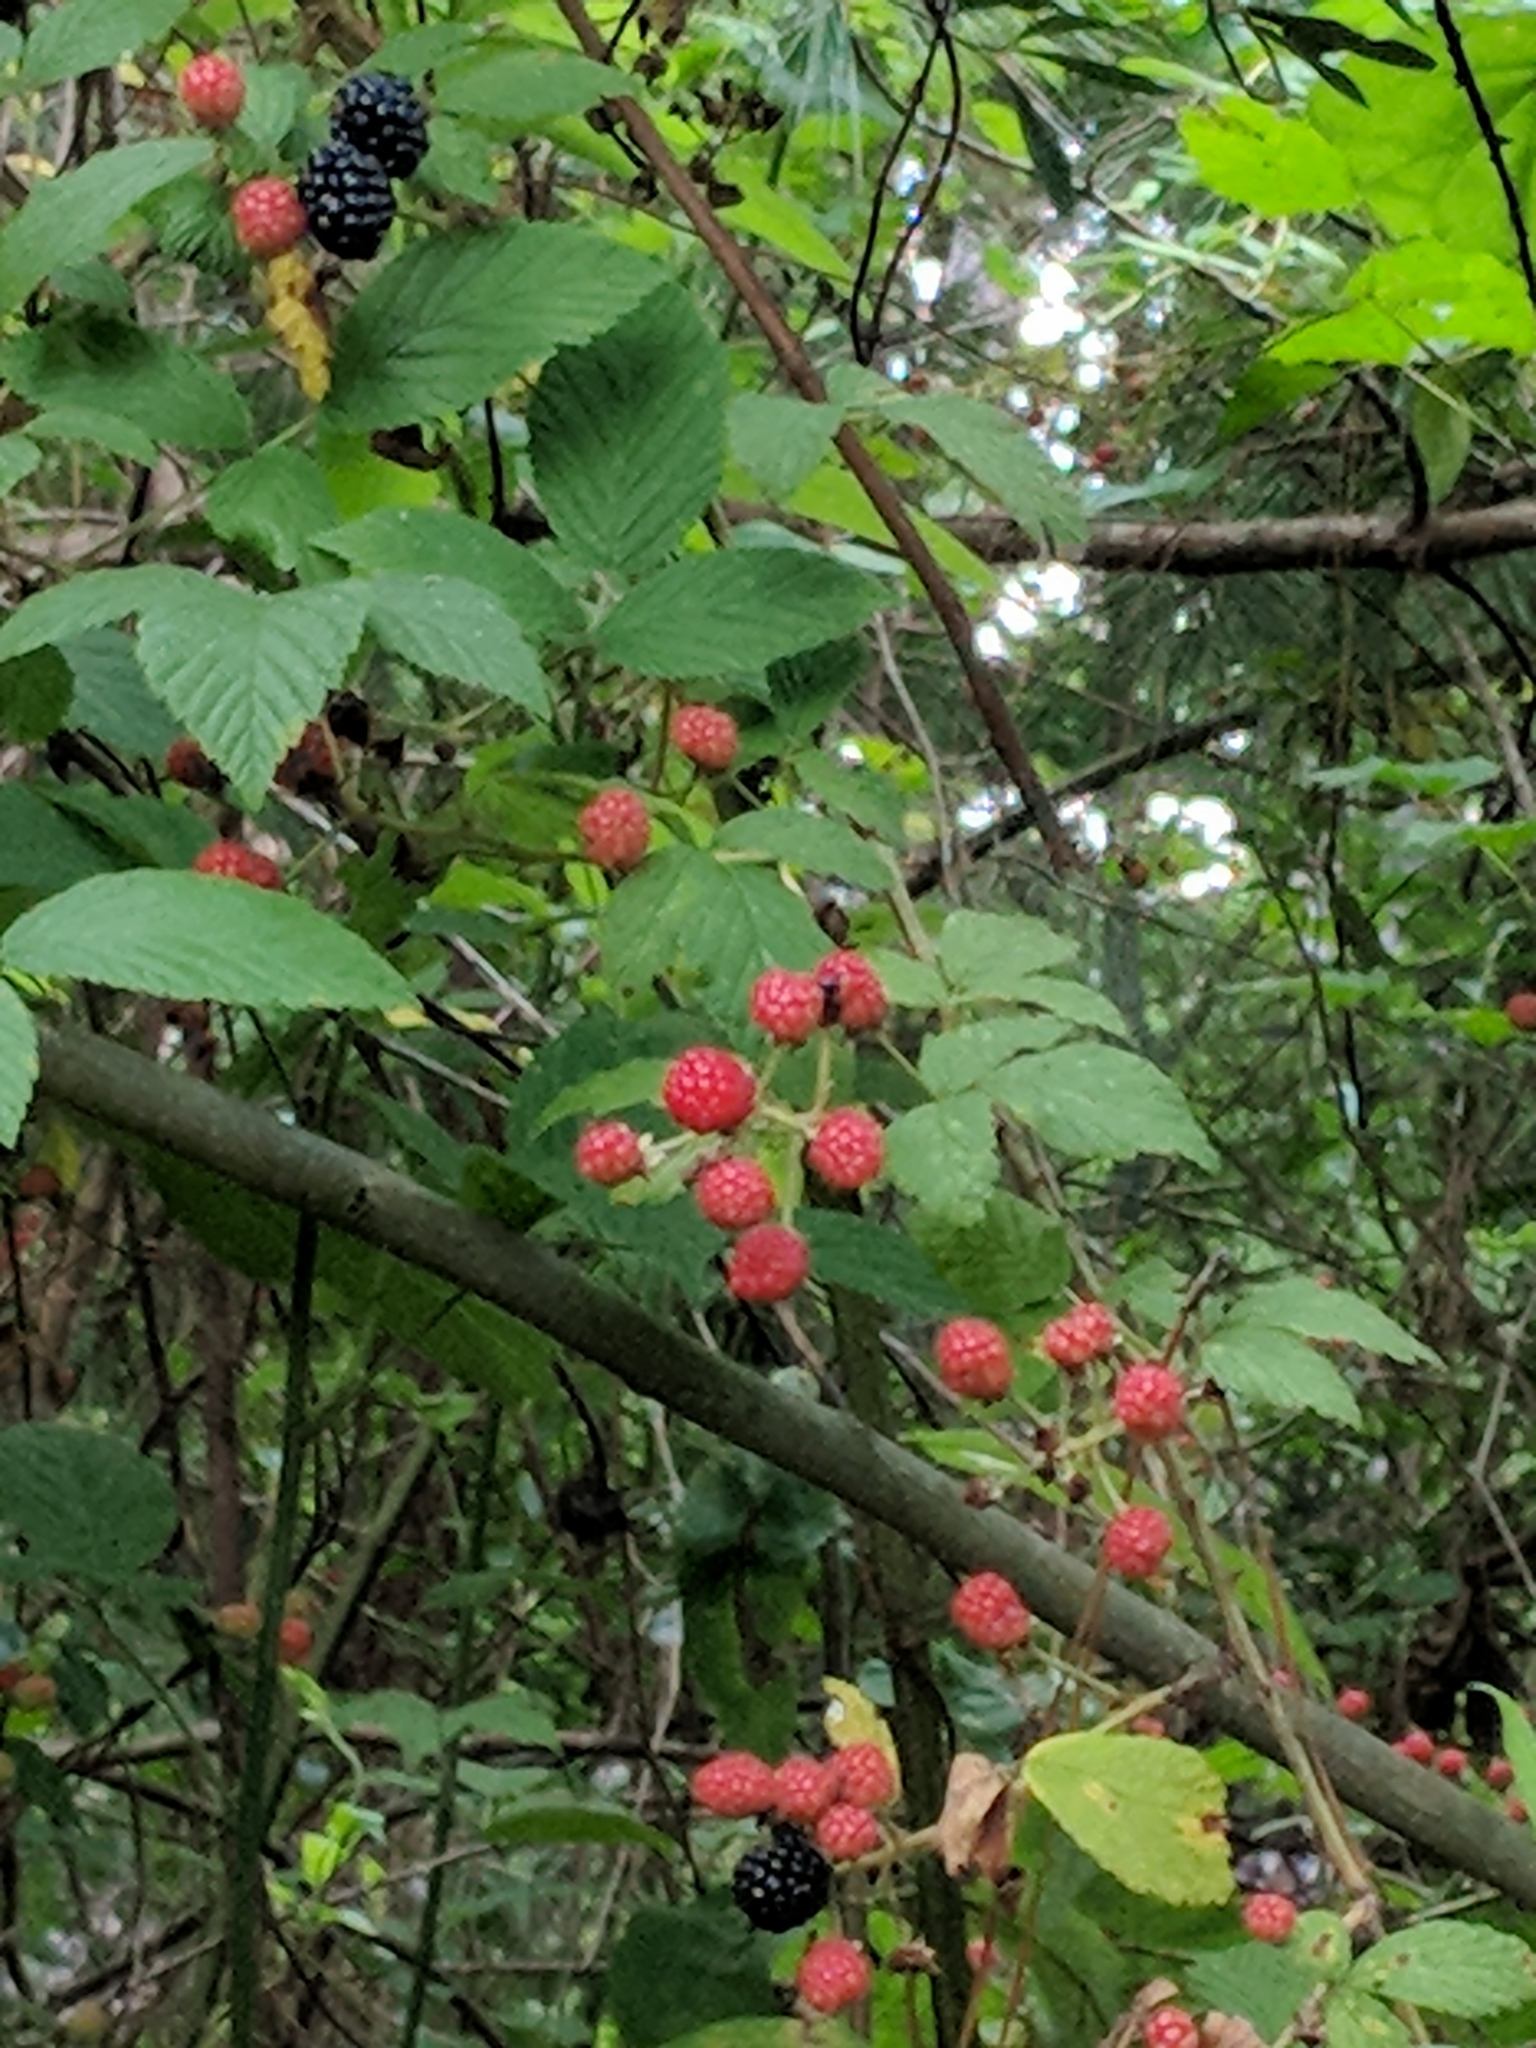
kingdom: Plantae
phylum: Tracheophyta
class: Magnoliopsida
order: Rosales
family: Rosaceae
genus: Rubus
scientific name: Rubus allegheniensis
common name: Allegheny blackberry
